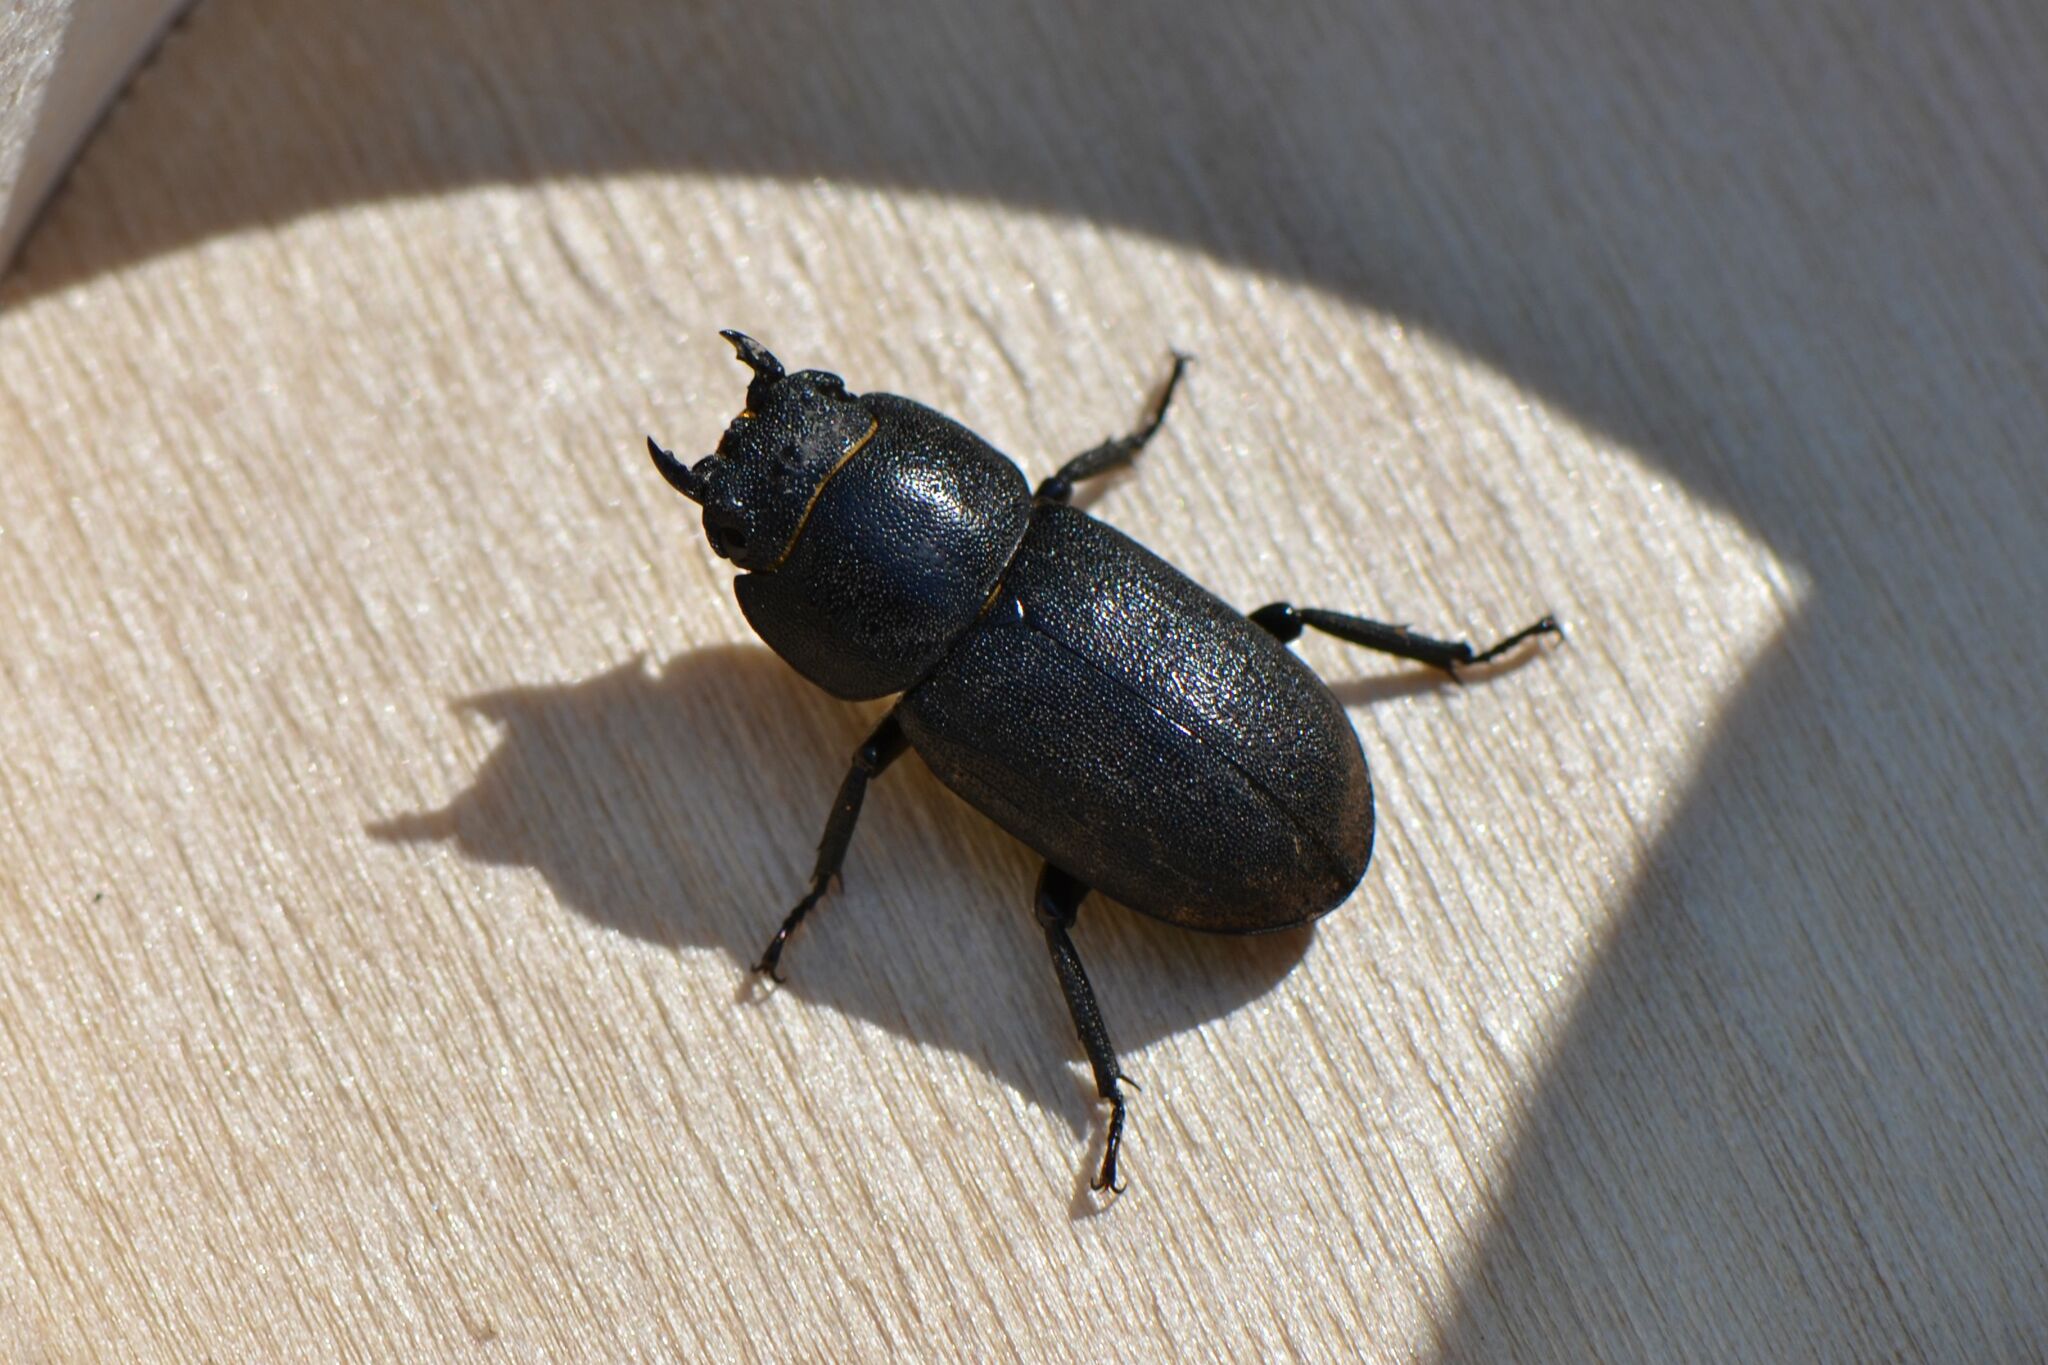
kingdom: Animalia
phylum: Arthropoda
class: Insecta
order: Coleoptera
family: Lucanidae
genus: Dorcus
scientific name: Dorcus parallelipipedus
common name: Lesser stag beetle
